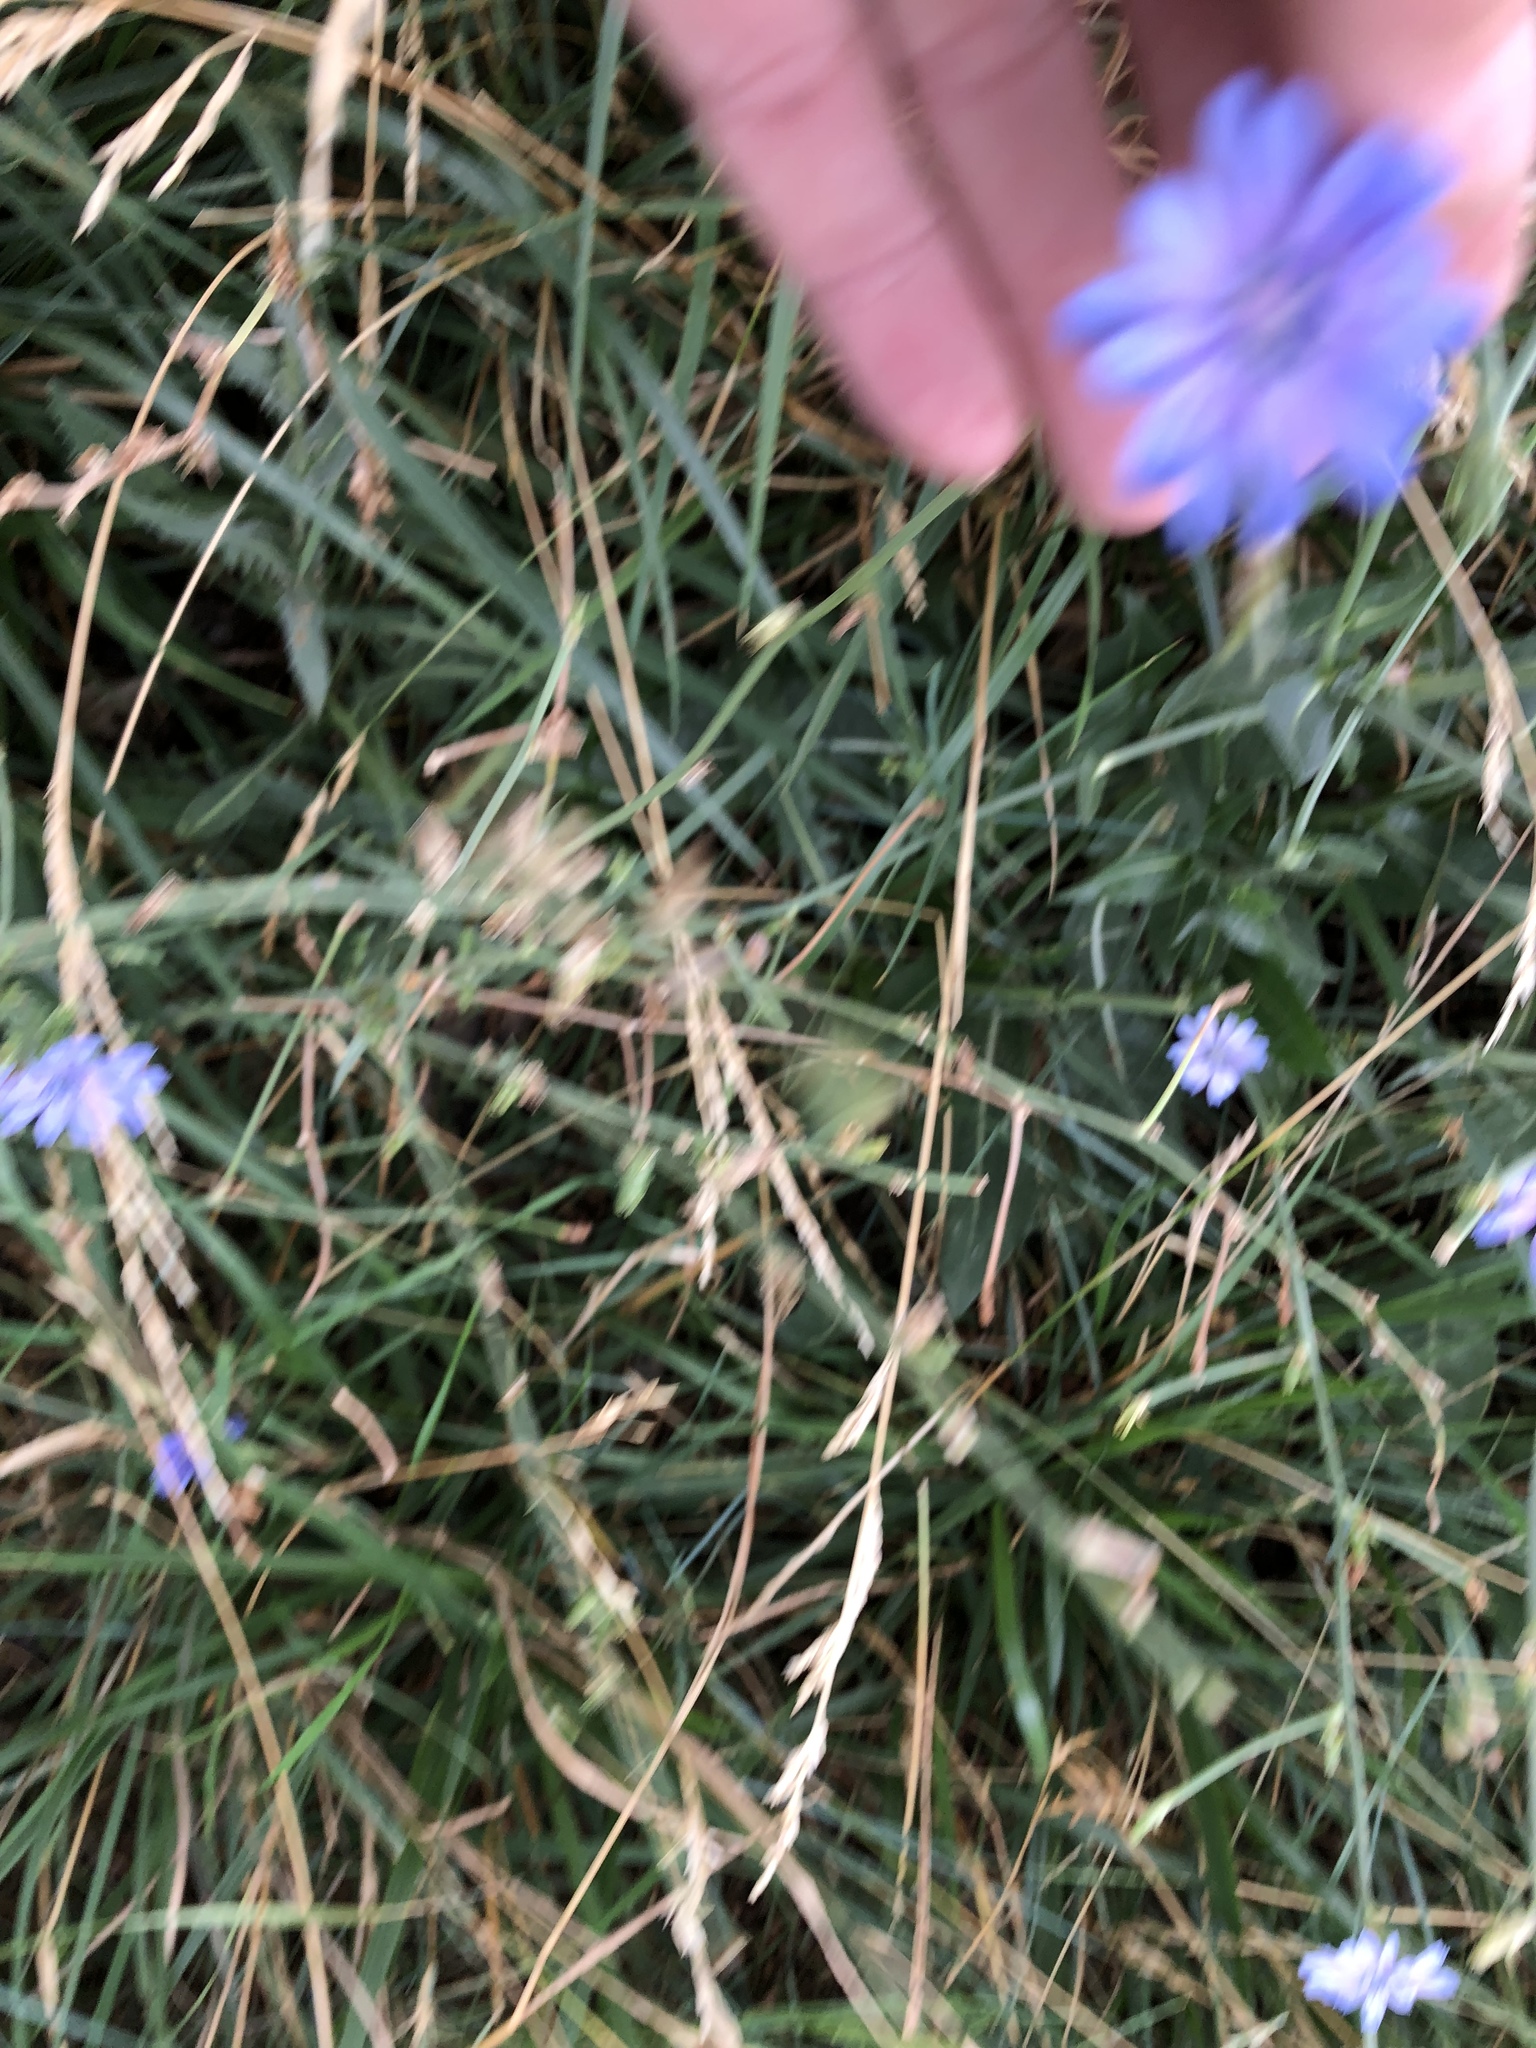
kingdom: Plantae
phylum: Tracheophyta
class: Magnoliopsida
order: Asterales
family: Asteraceae
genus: Cichorium
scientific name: Cichorium intybus
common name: Chicory
